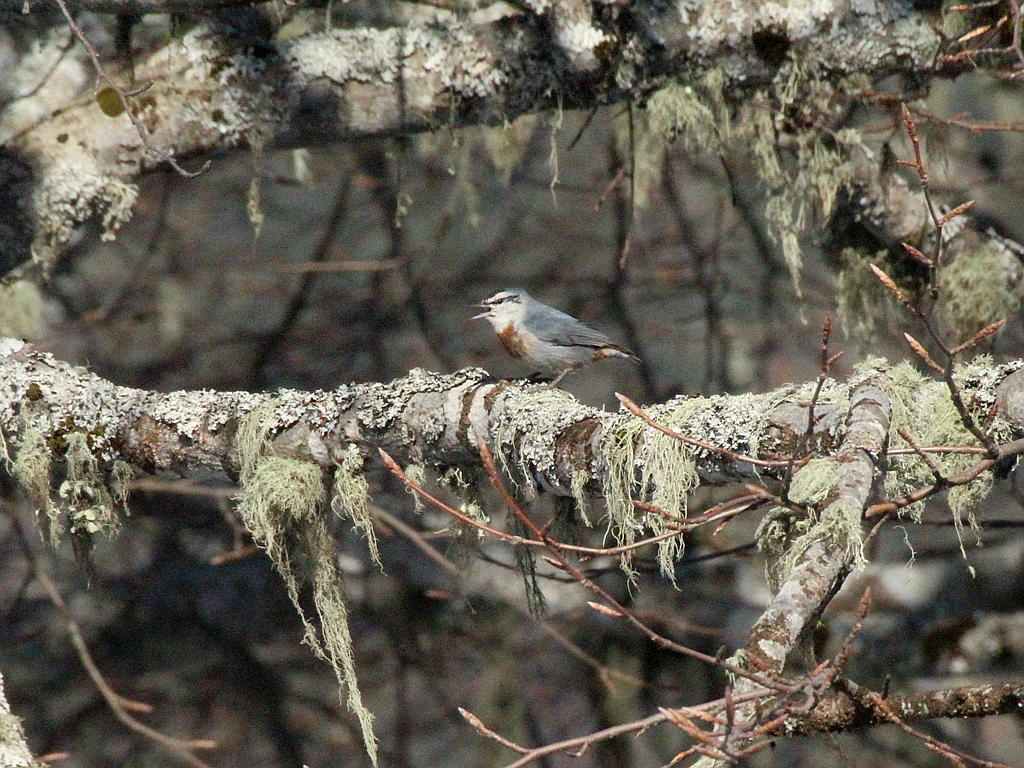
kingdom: Animalia
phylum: Chordata
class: Aves
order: Passeriformes
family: Sittidae
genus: Sitta
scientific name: Sitta krueperi
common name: Krüper's nuthatch
